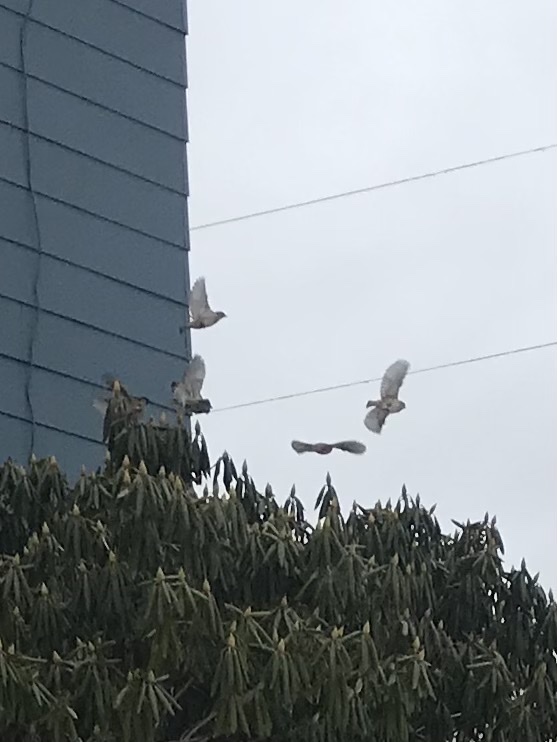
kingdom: Animalia
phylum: Chordata
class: Aves
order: Passeriformes
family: Passeridae
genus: Passer
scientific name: Passer domesticus
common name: House sparrow
